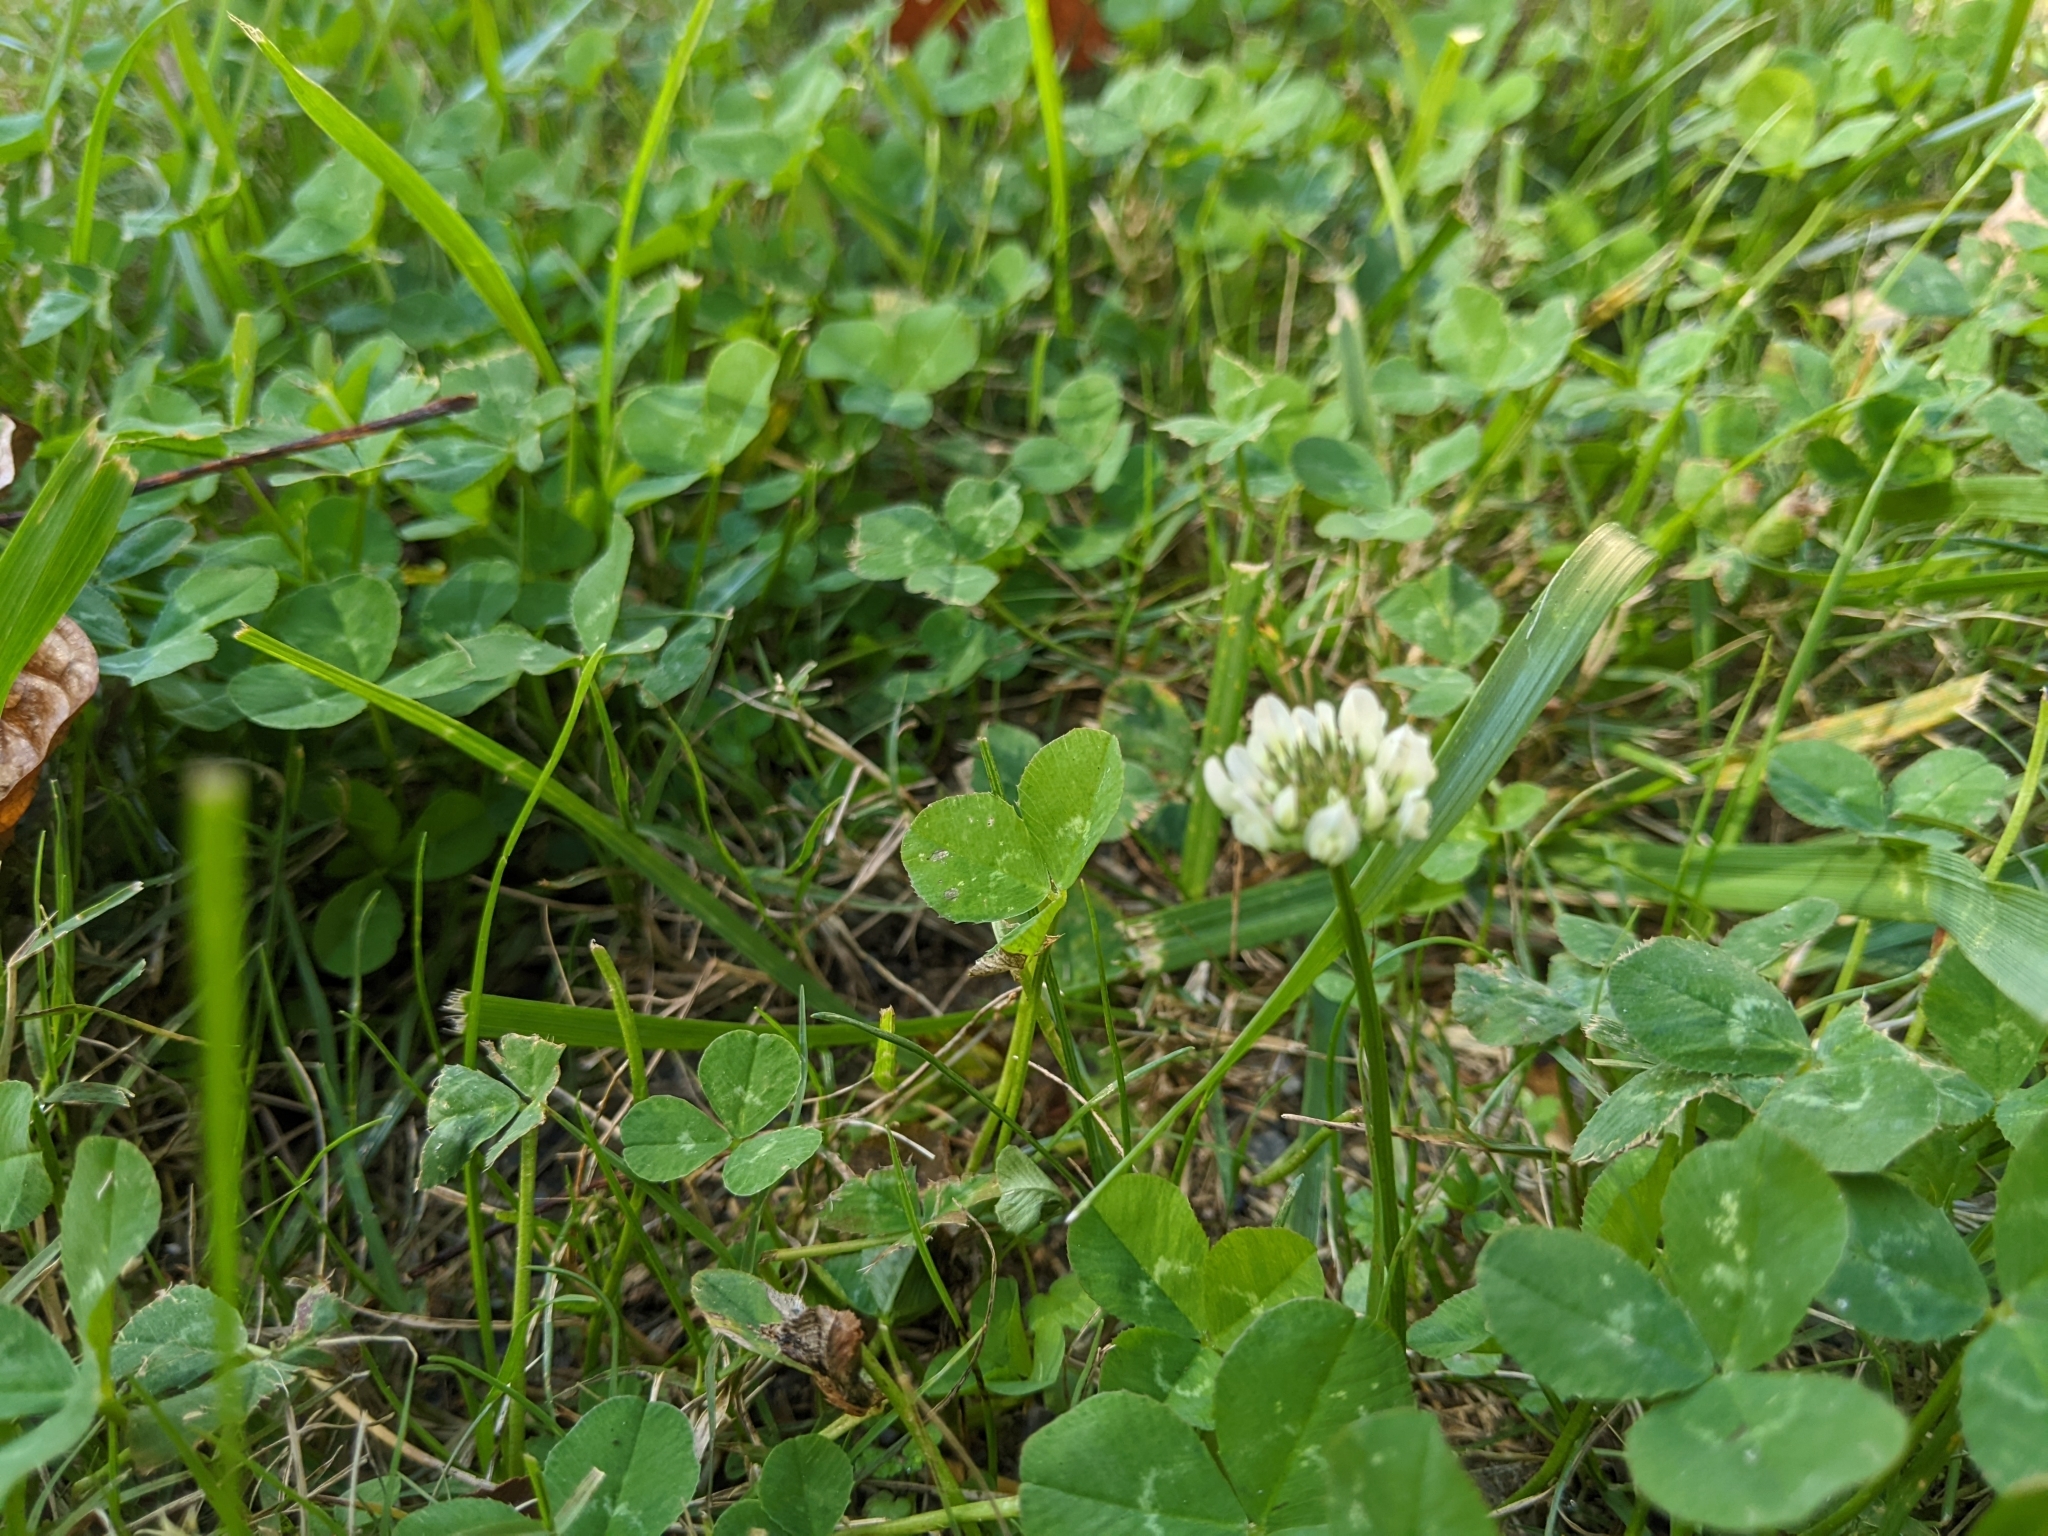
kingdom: Plantae
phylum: Tracheophyta
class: Magnoliopsida
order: Fabales
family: Fabaceae
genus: Trifolium
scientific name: Trifolium repens
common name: White clover
